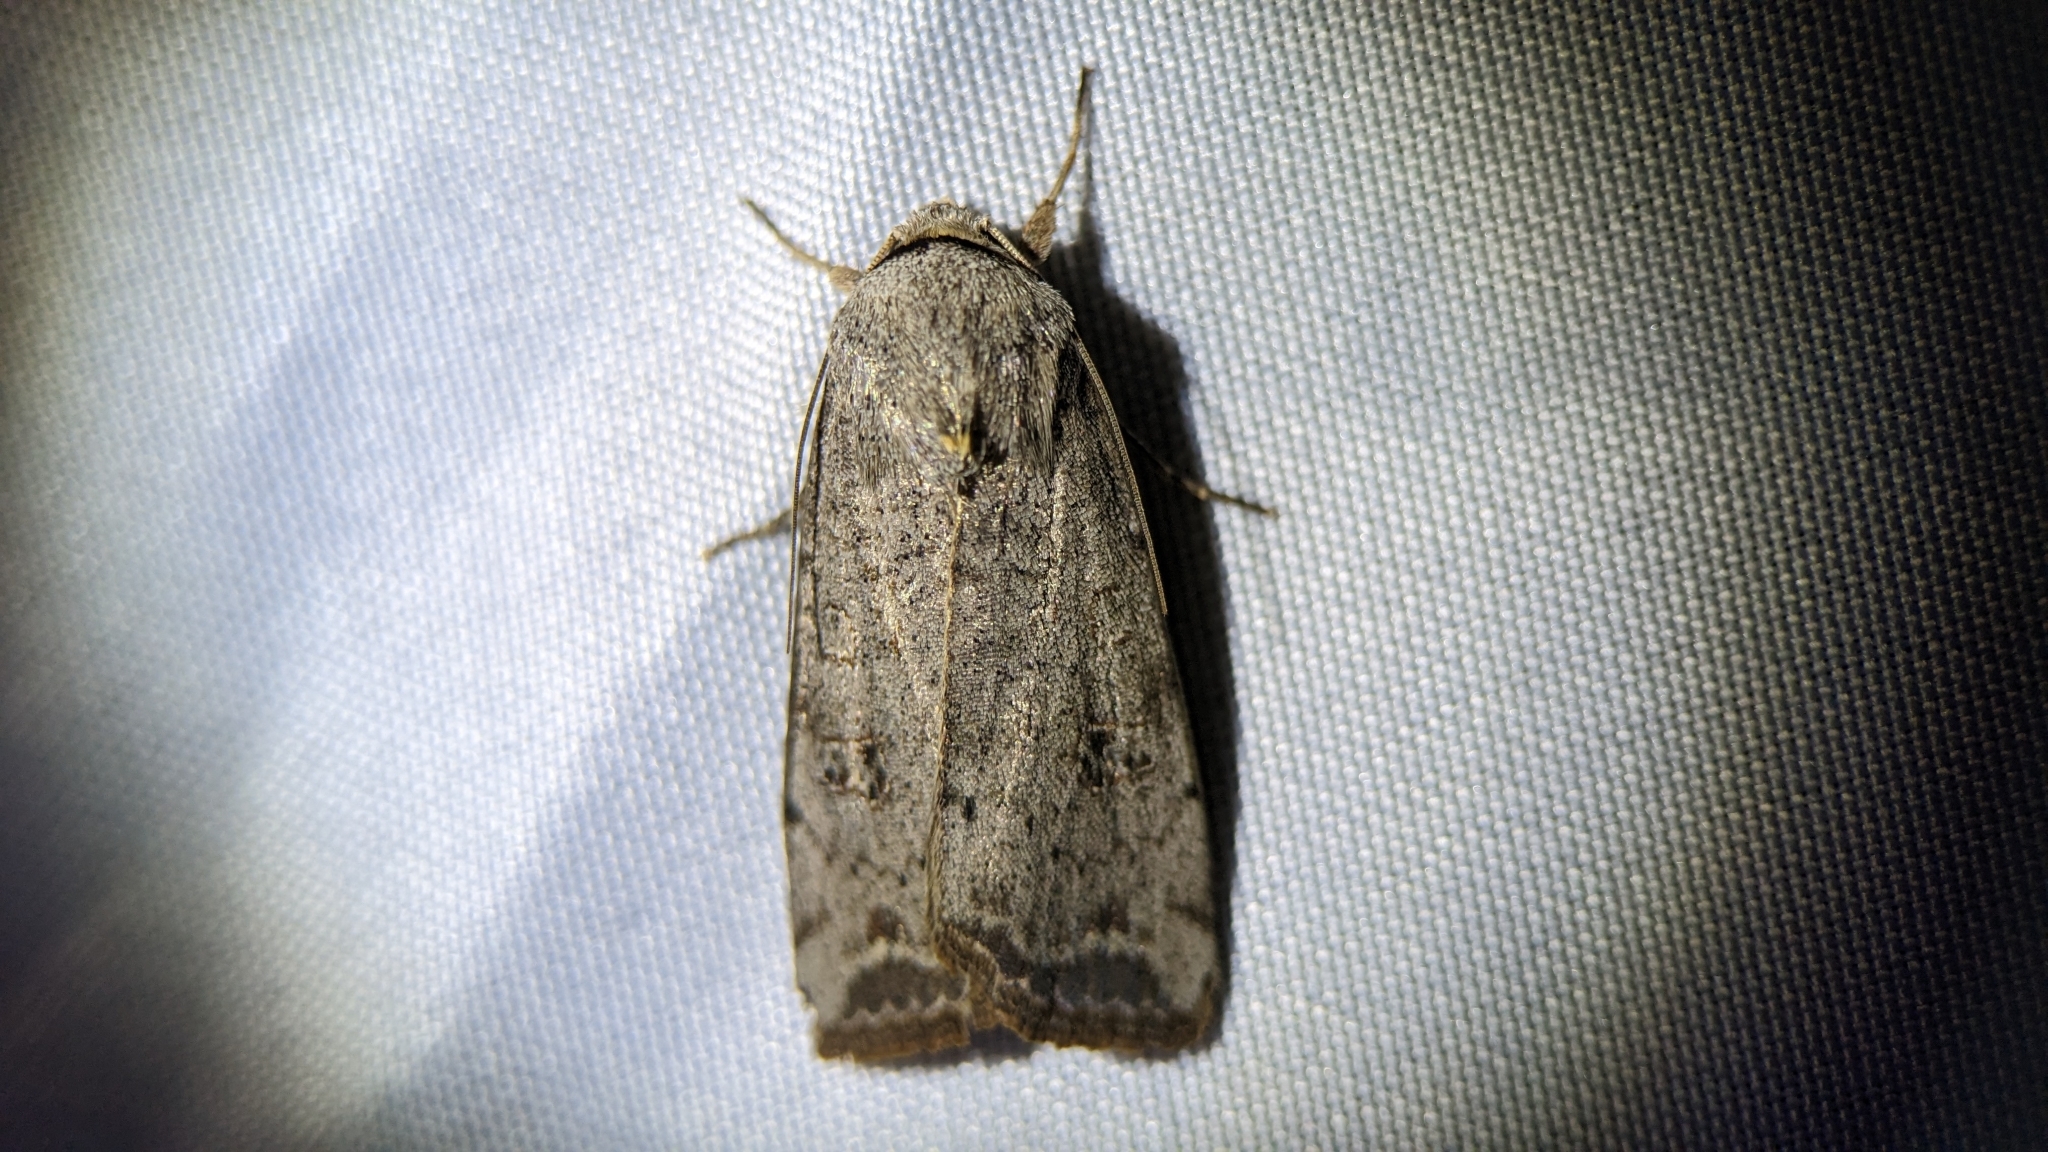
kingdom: Animalia
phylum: Arthropoda
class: Insecta
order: Lepidoptera
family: Noctuidae
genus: Anicla
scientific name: Anicla infecta
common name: Green cutworm
